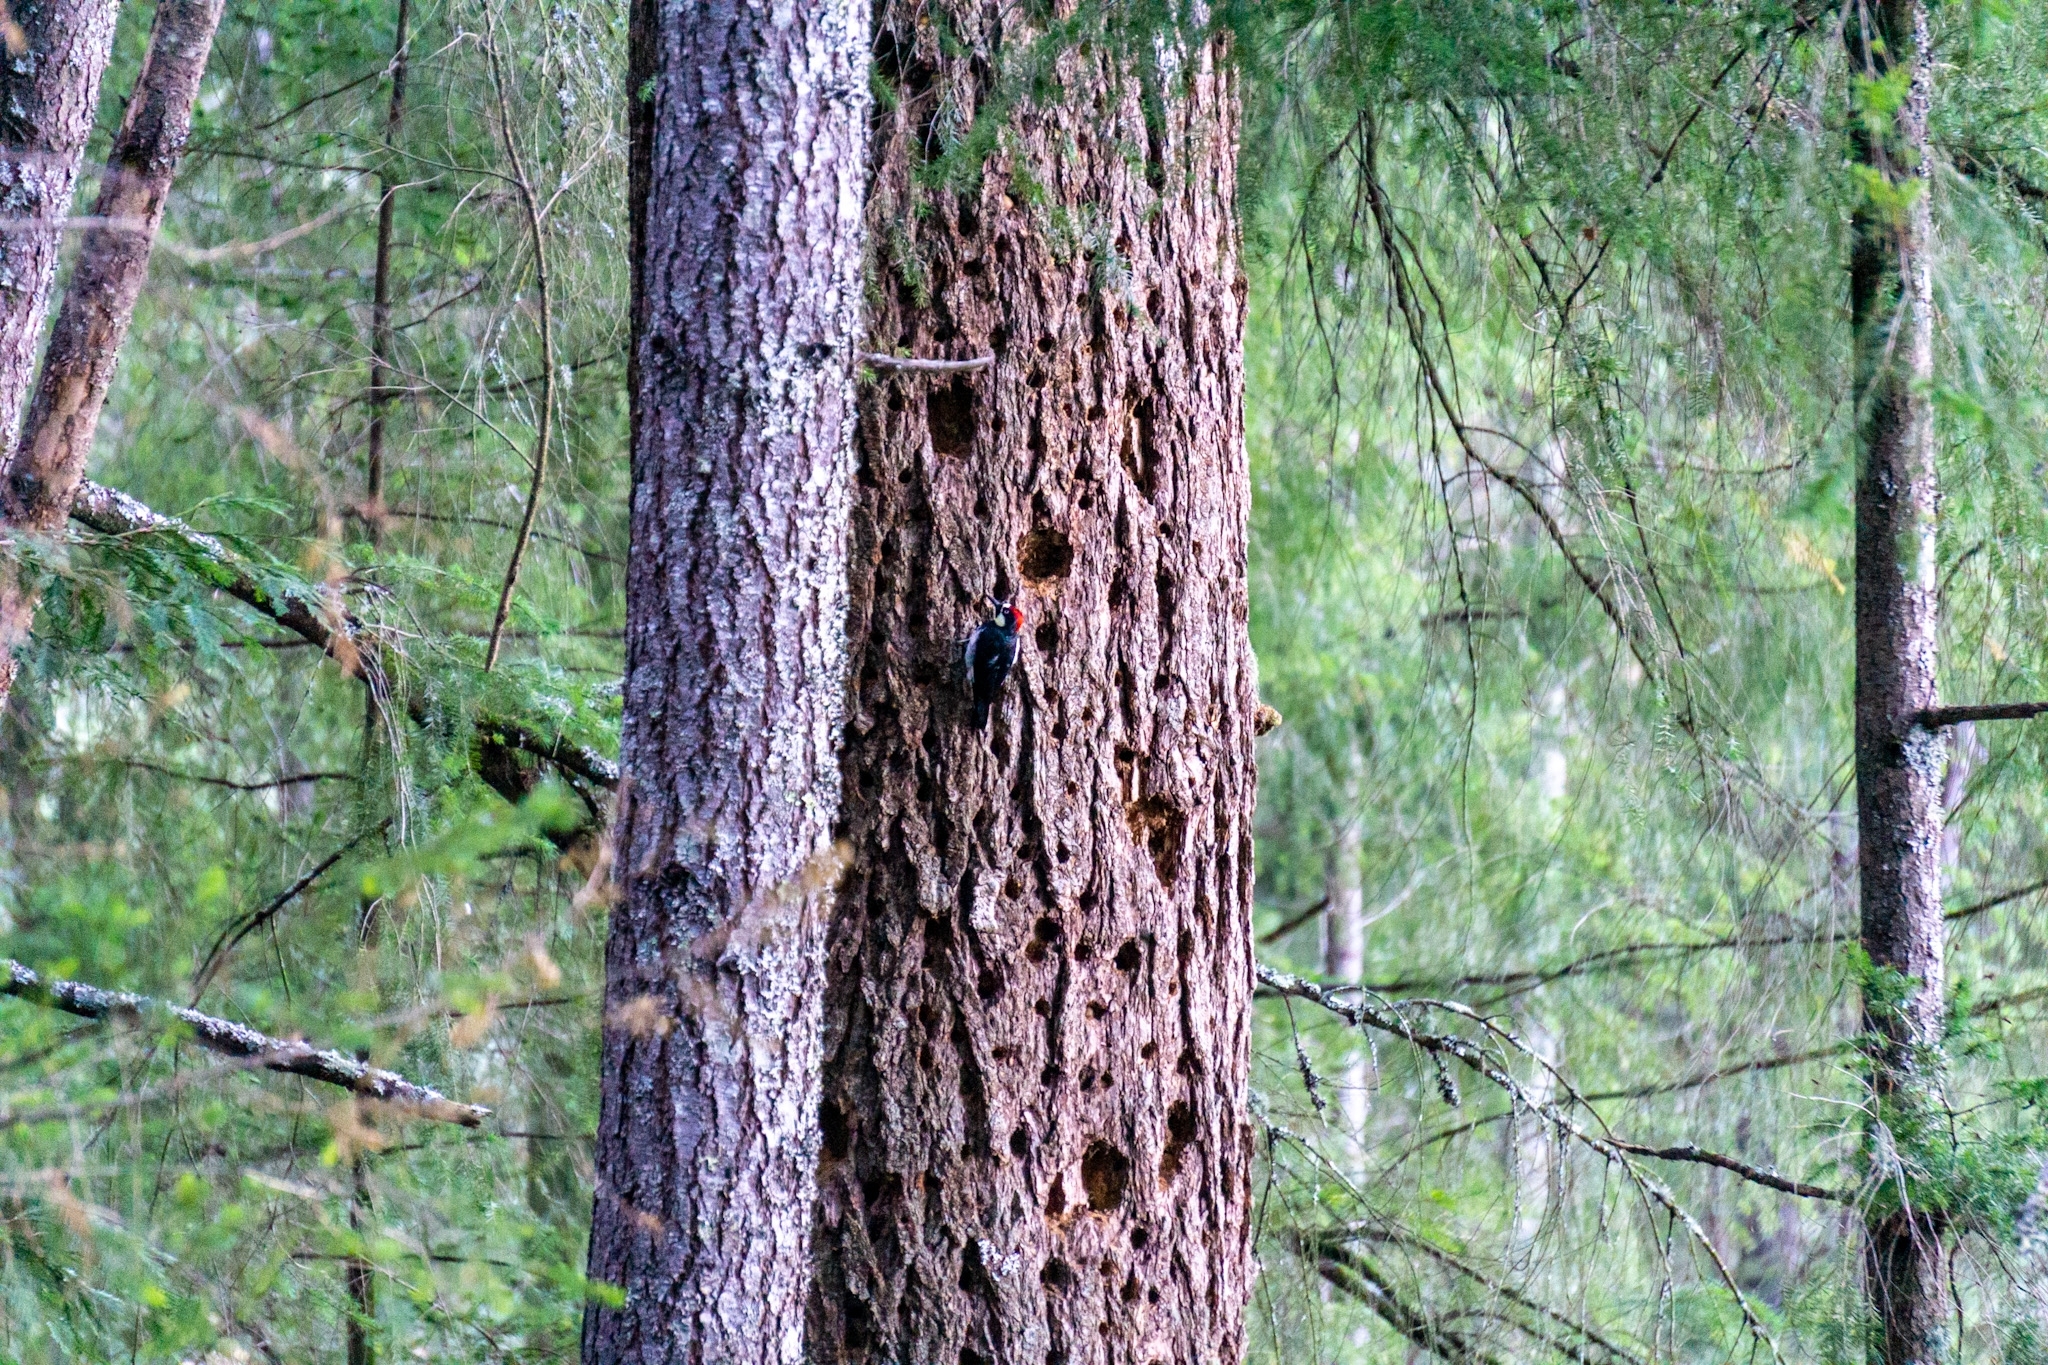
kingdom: Animalia
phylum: Chordata
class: Aves
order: Piciformes
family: Picidae
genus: Melanerpes
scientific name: Melanerpes formicivorus
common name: Acorn woodpecker
